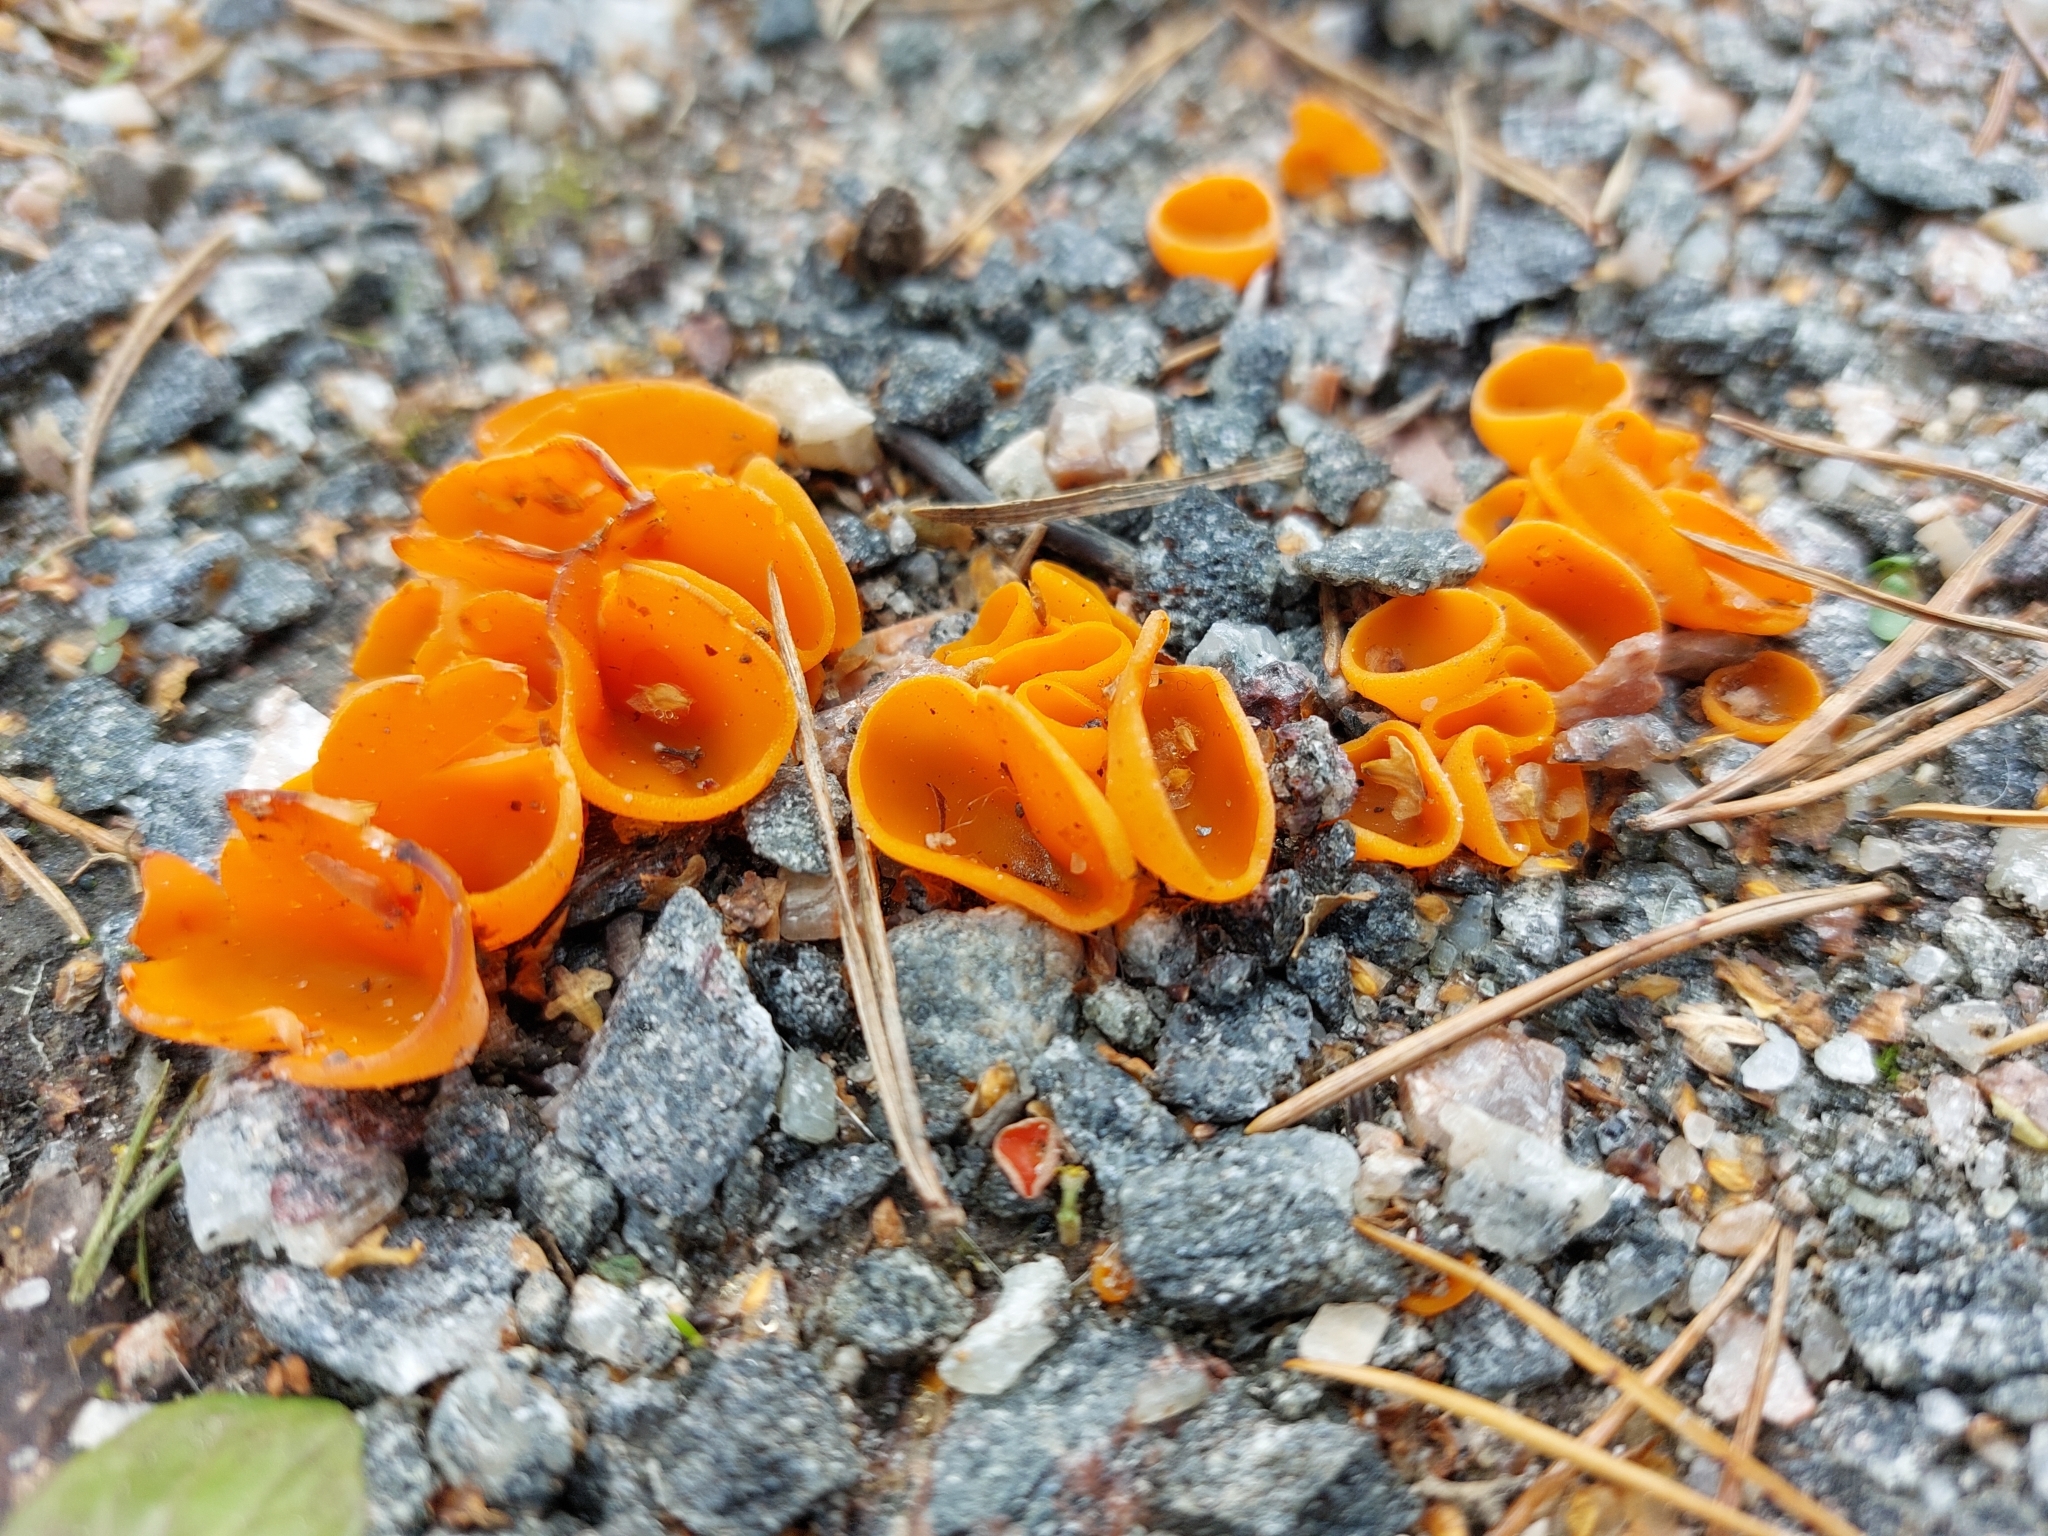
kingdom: Fungi
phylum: Ascomycota
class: Pezizomycetes
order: Pezizales
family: Pyronemataceae
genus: Aleuria
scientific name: Aleuria aurantia
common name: Orange peel fungus
